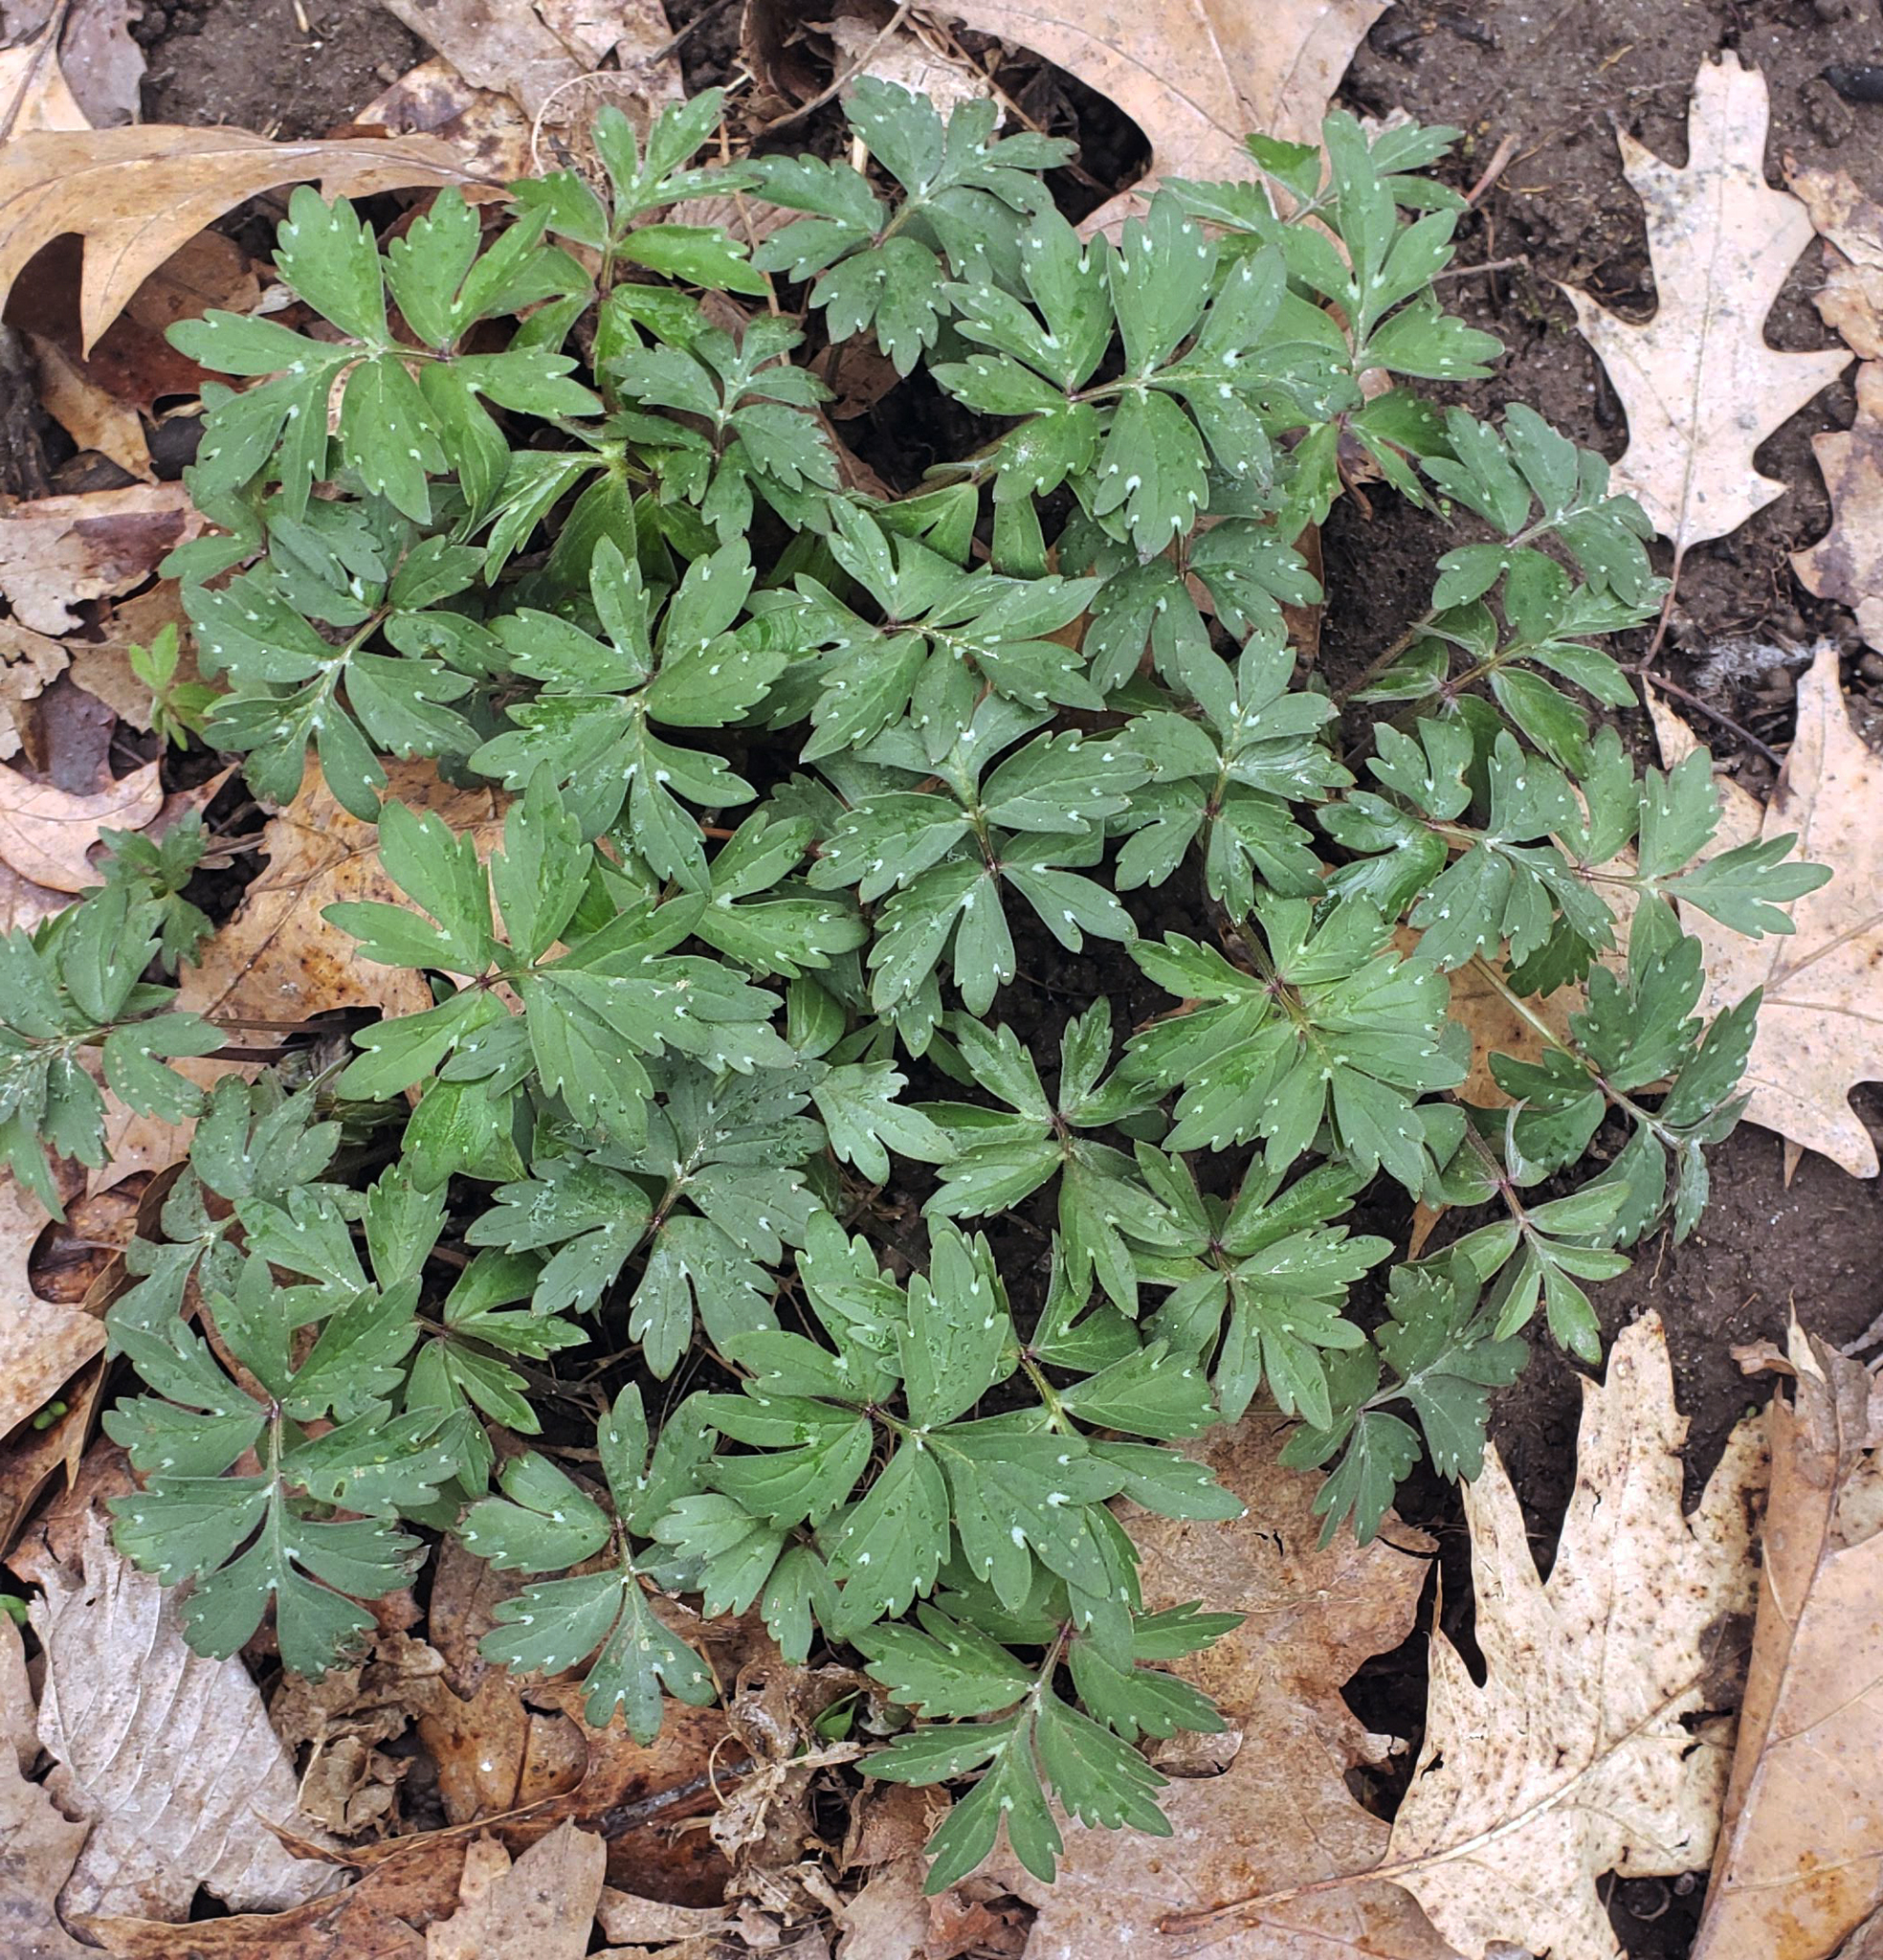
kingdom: Plantae
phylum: Tracheophyta
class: Magnoliopsida
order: Boraginales
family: Hydrophyllaceae
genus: Hydrophyllum
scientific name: Hydrophyllum virginianum
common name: Virginia waterleaf
